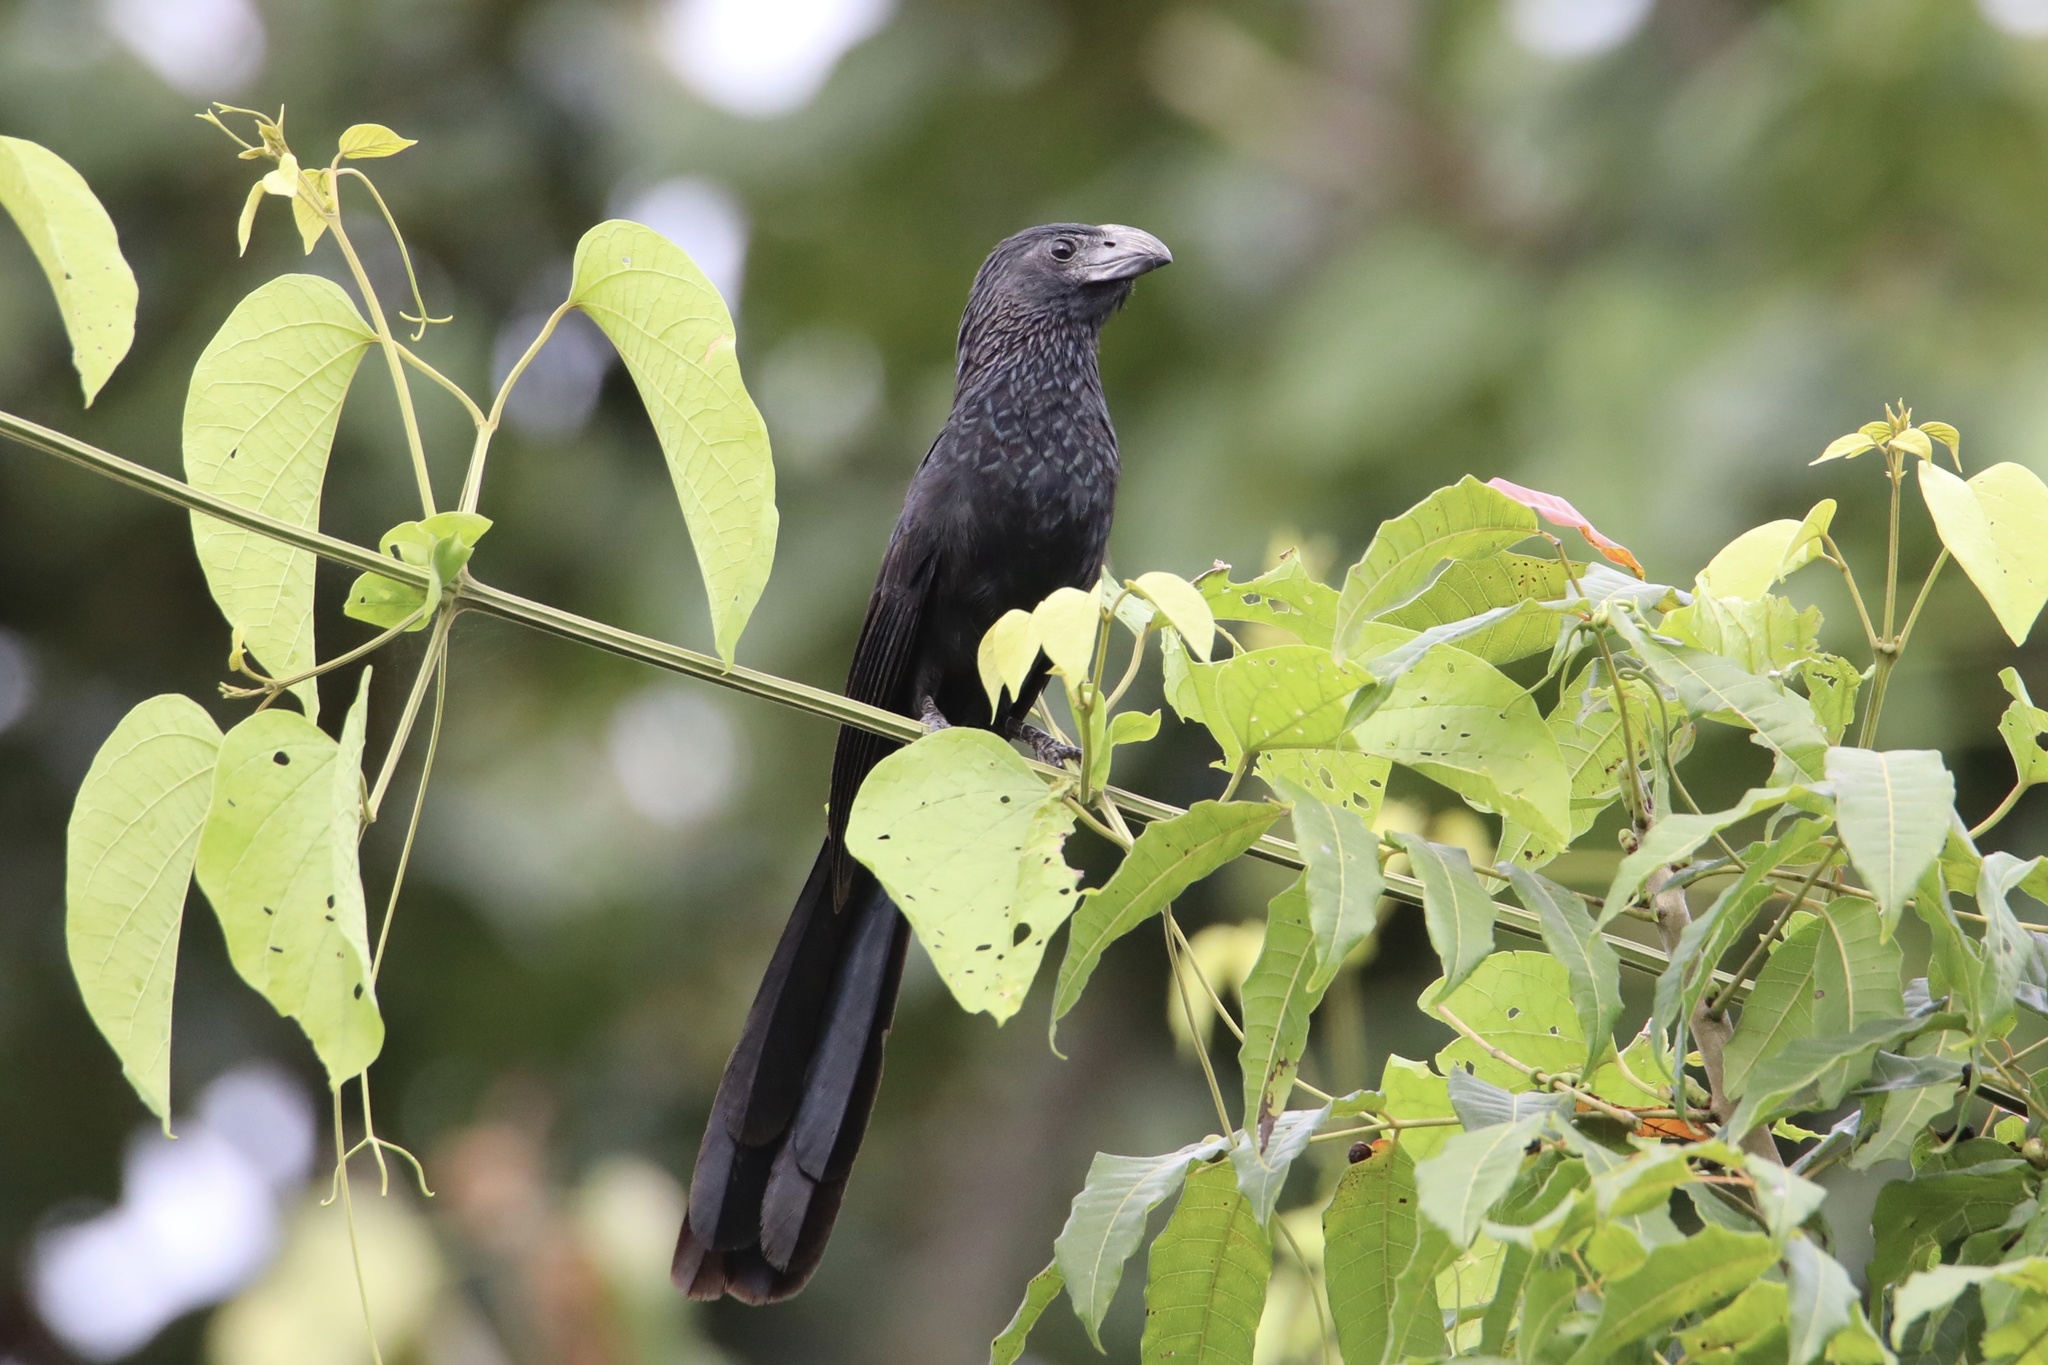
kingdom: Animalia
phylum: Chordata
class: Aves
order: Cuculiformes
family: Cuculidae
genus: Crotophaga
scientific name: Crotophaga sulcirostris
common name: Groove-billed ani
